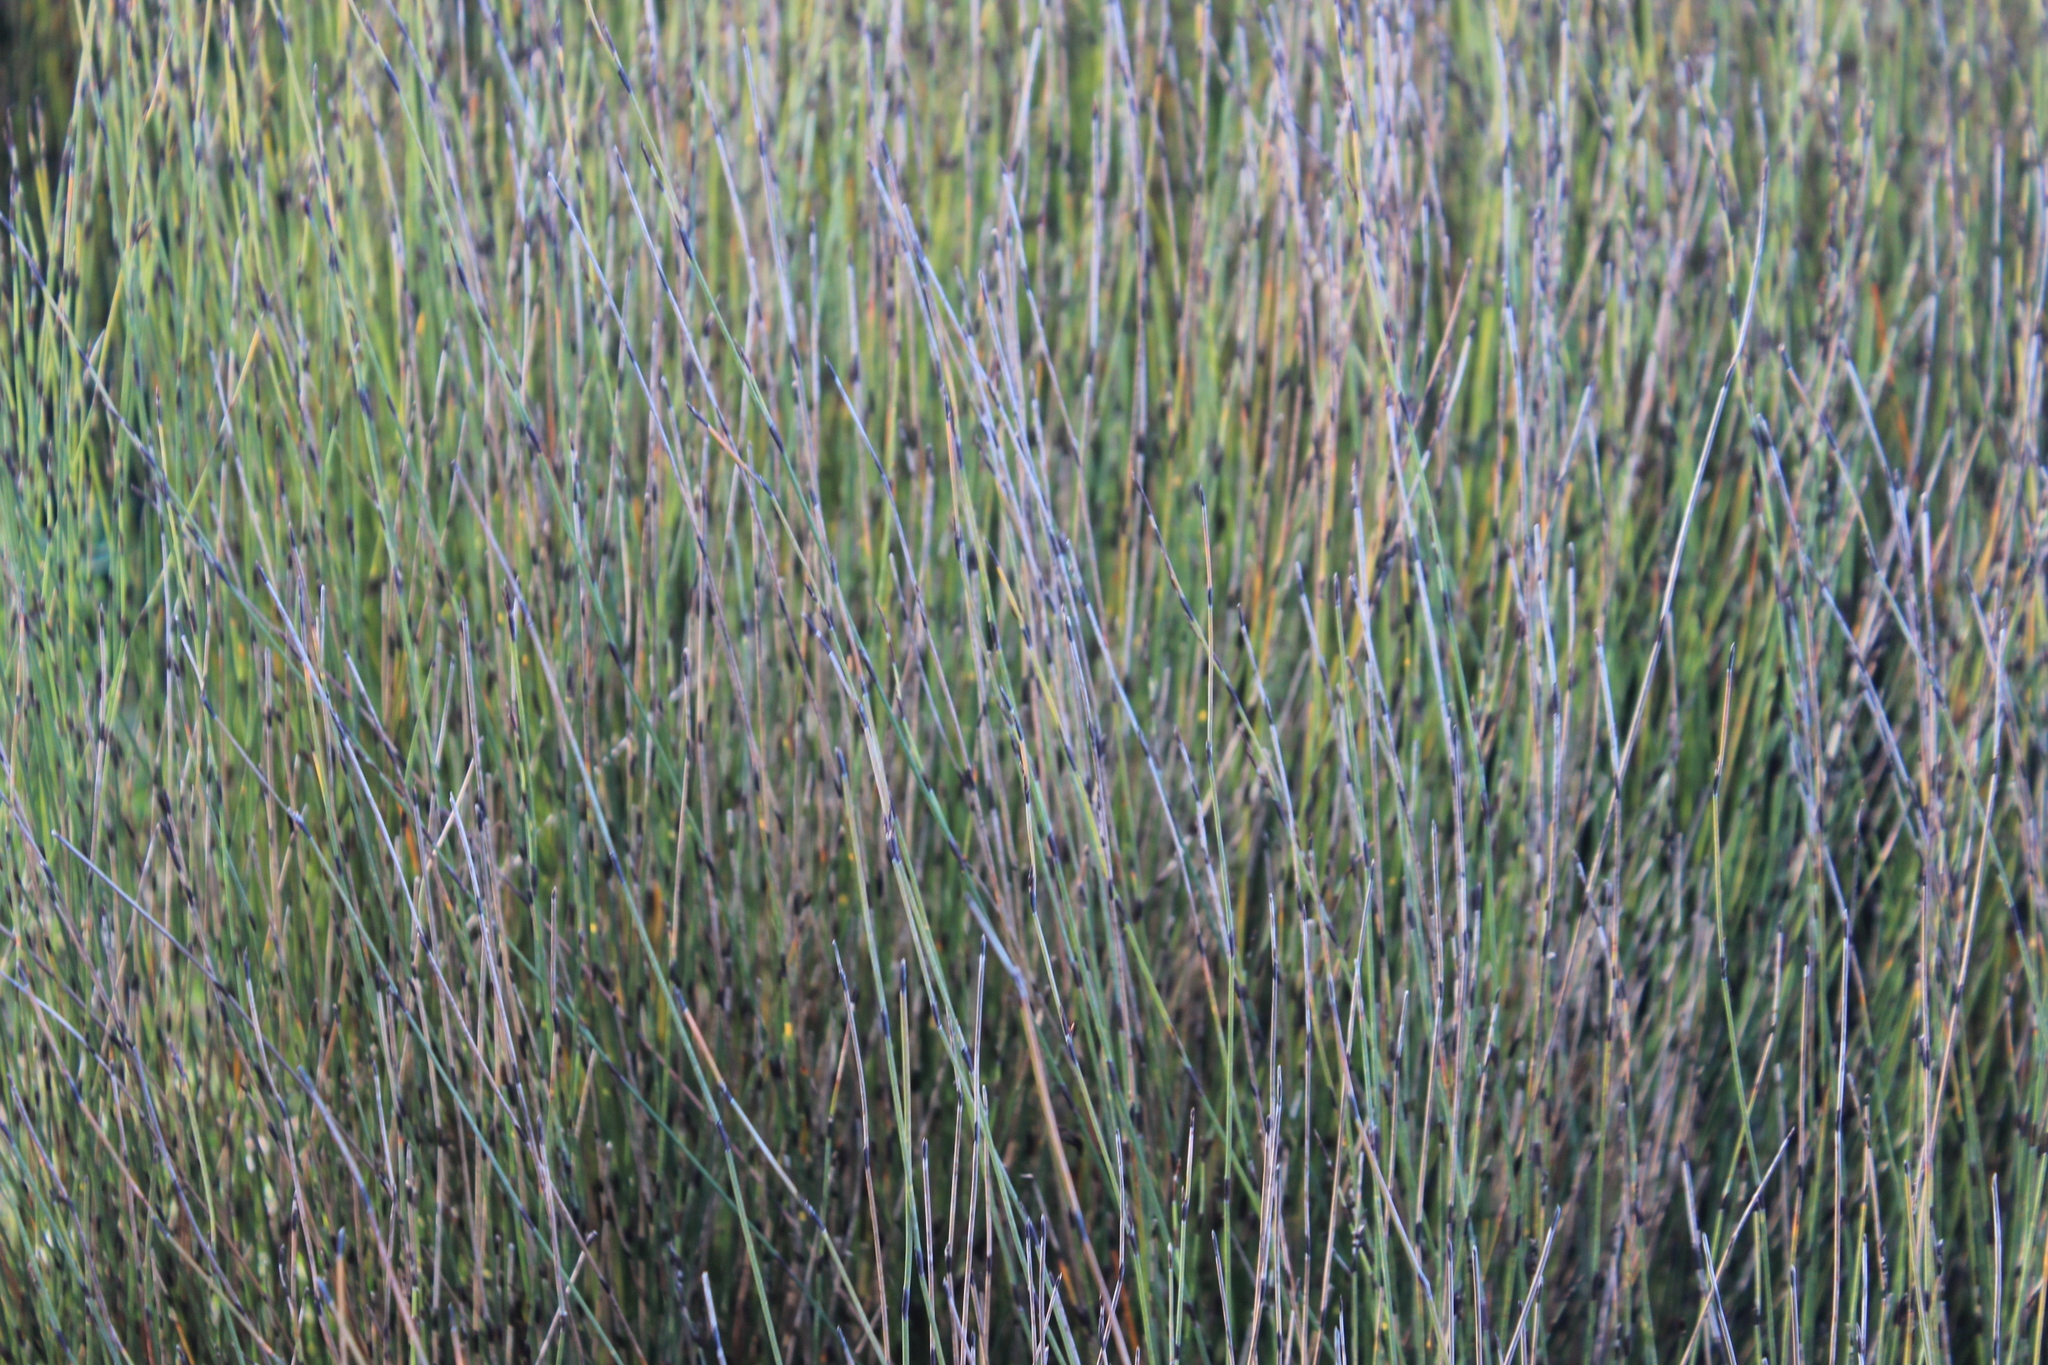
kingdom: Plantae
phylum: Tracheophyta
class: Liliopsida
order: Poales
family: Restionaceae
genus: Apodasmia
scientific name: Apodasmia similis
